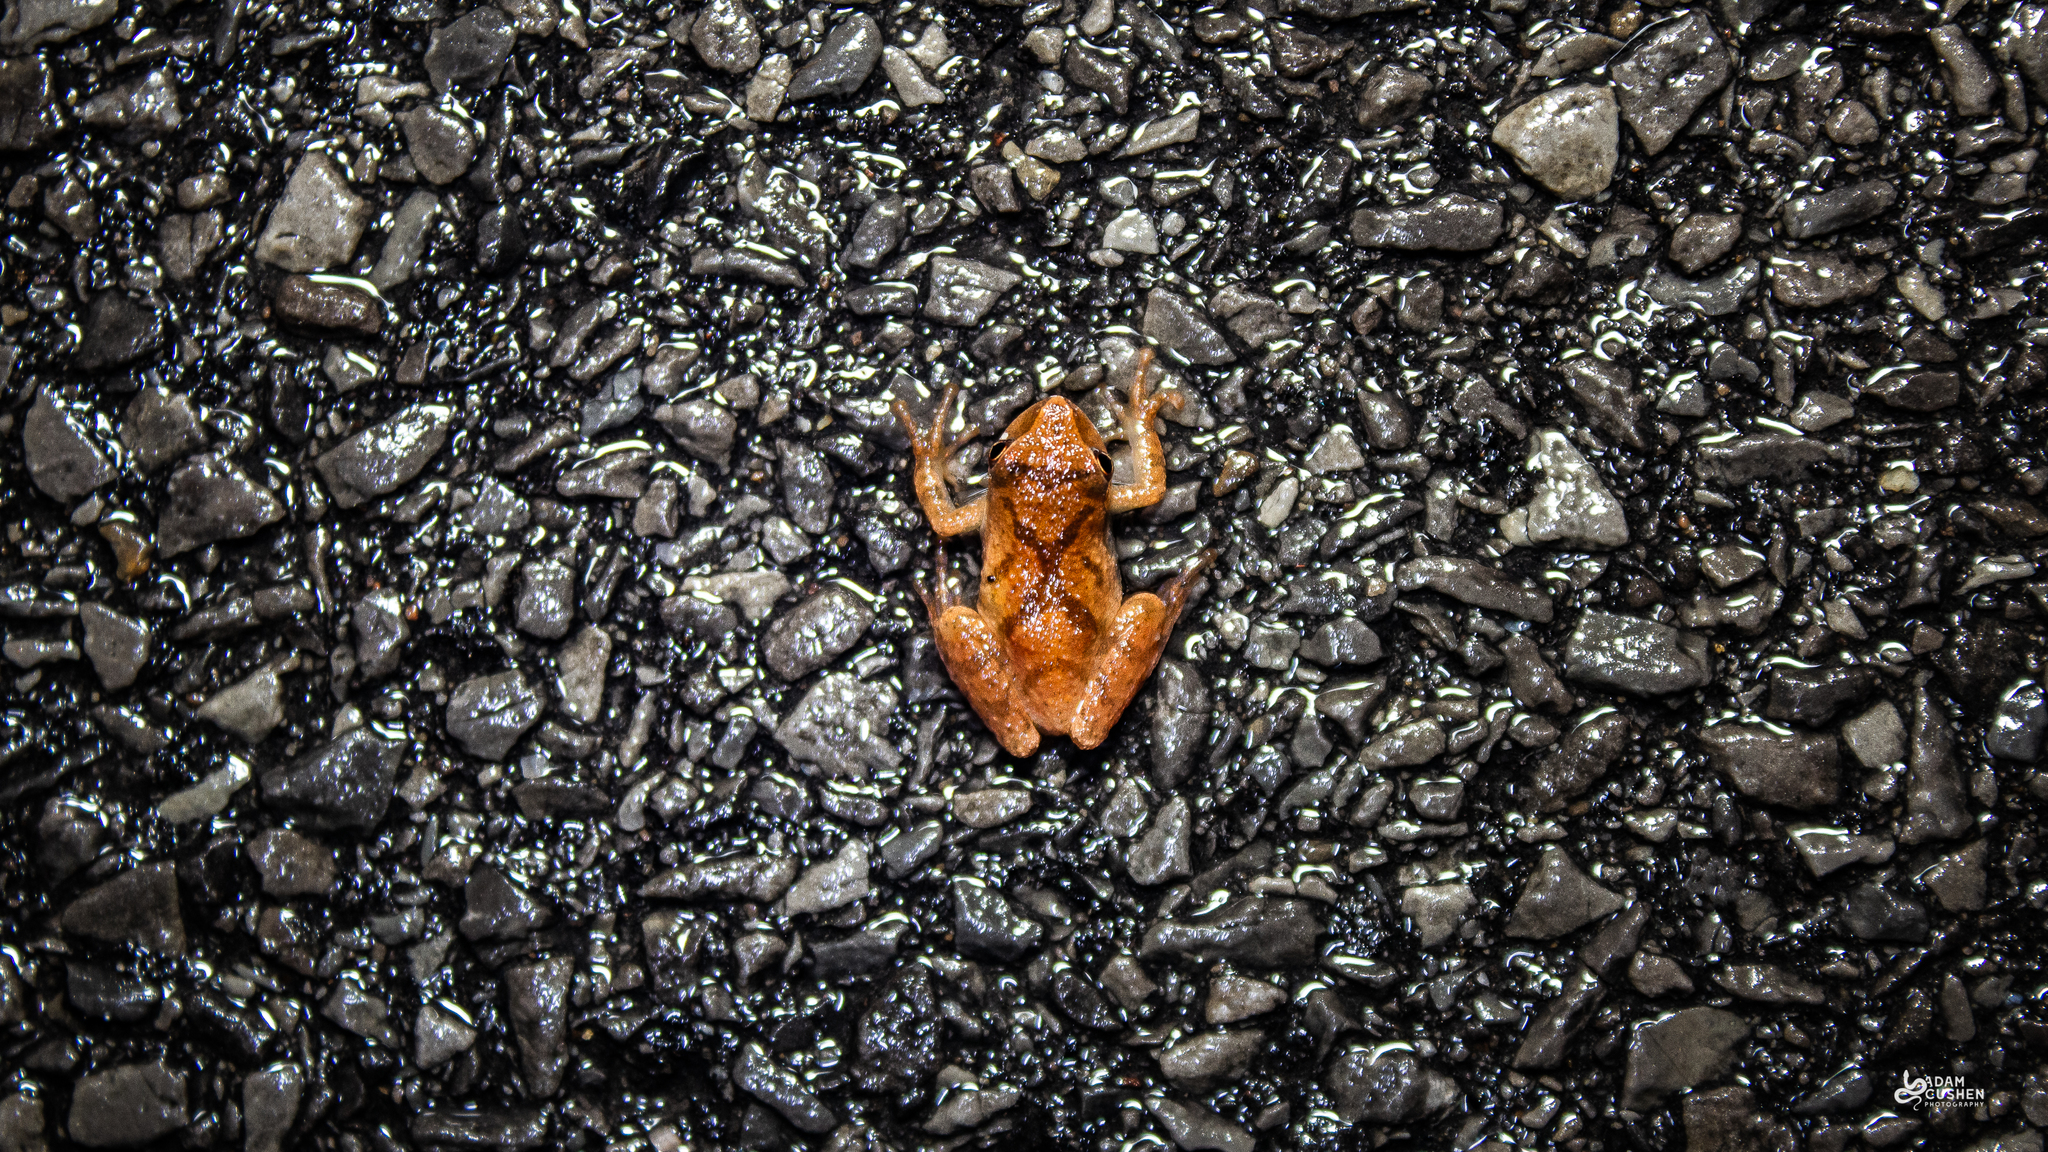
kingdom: Animalia
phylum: Chordata
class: Amphibia
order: Anura
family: Hylidae
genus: Pseudacris
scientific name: Pseudacris crucifer
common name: Spring peeper
